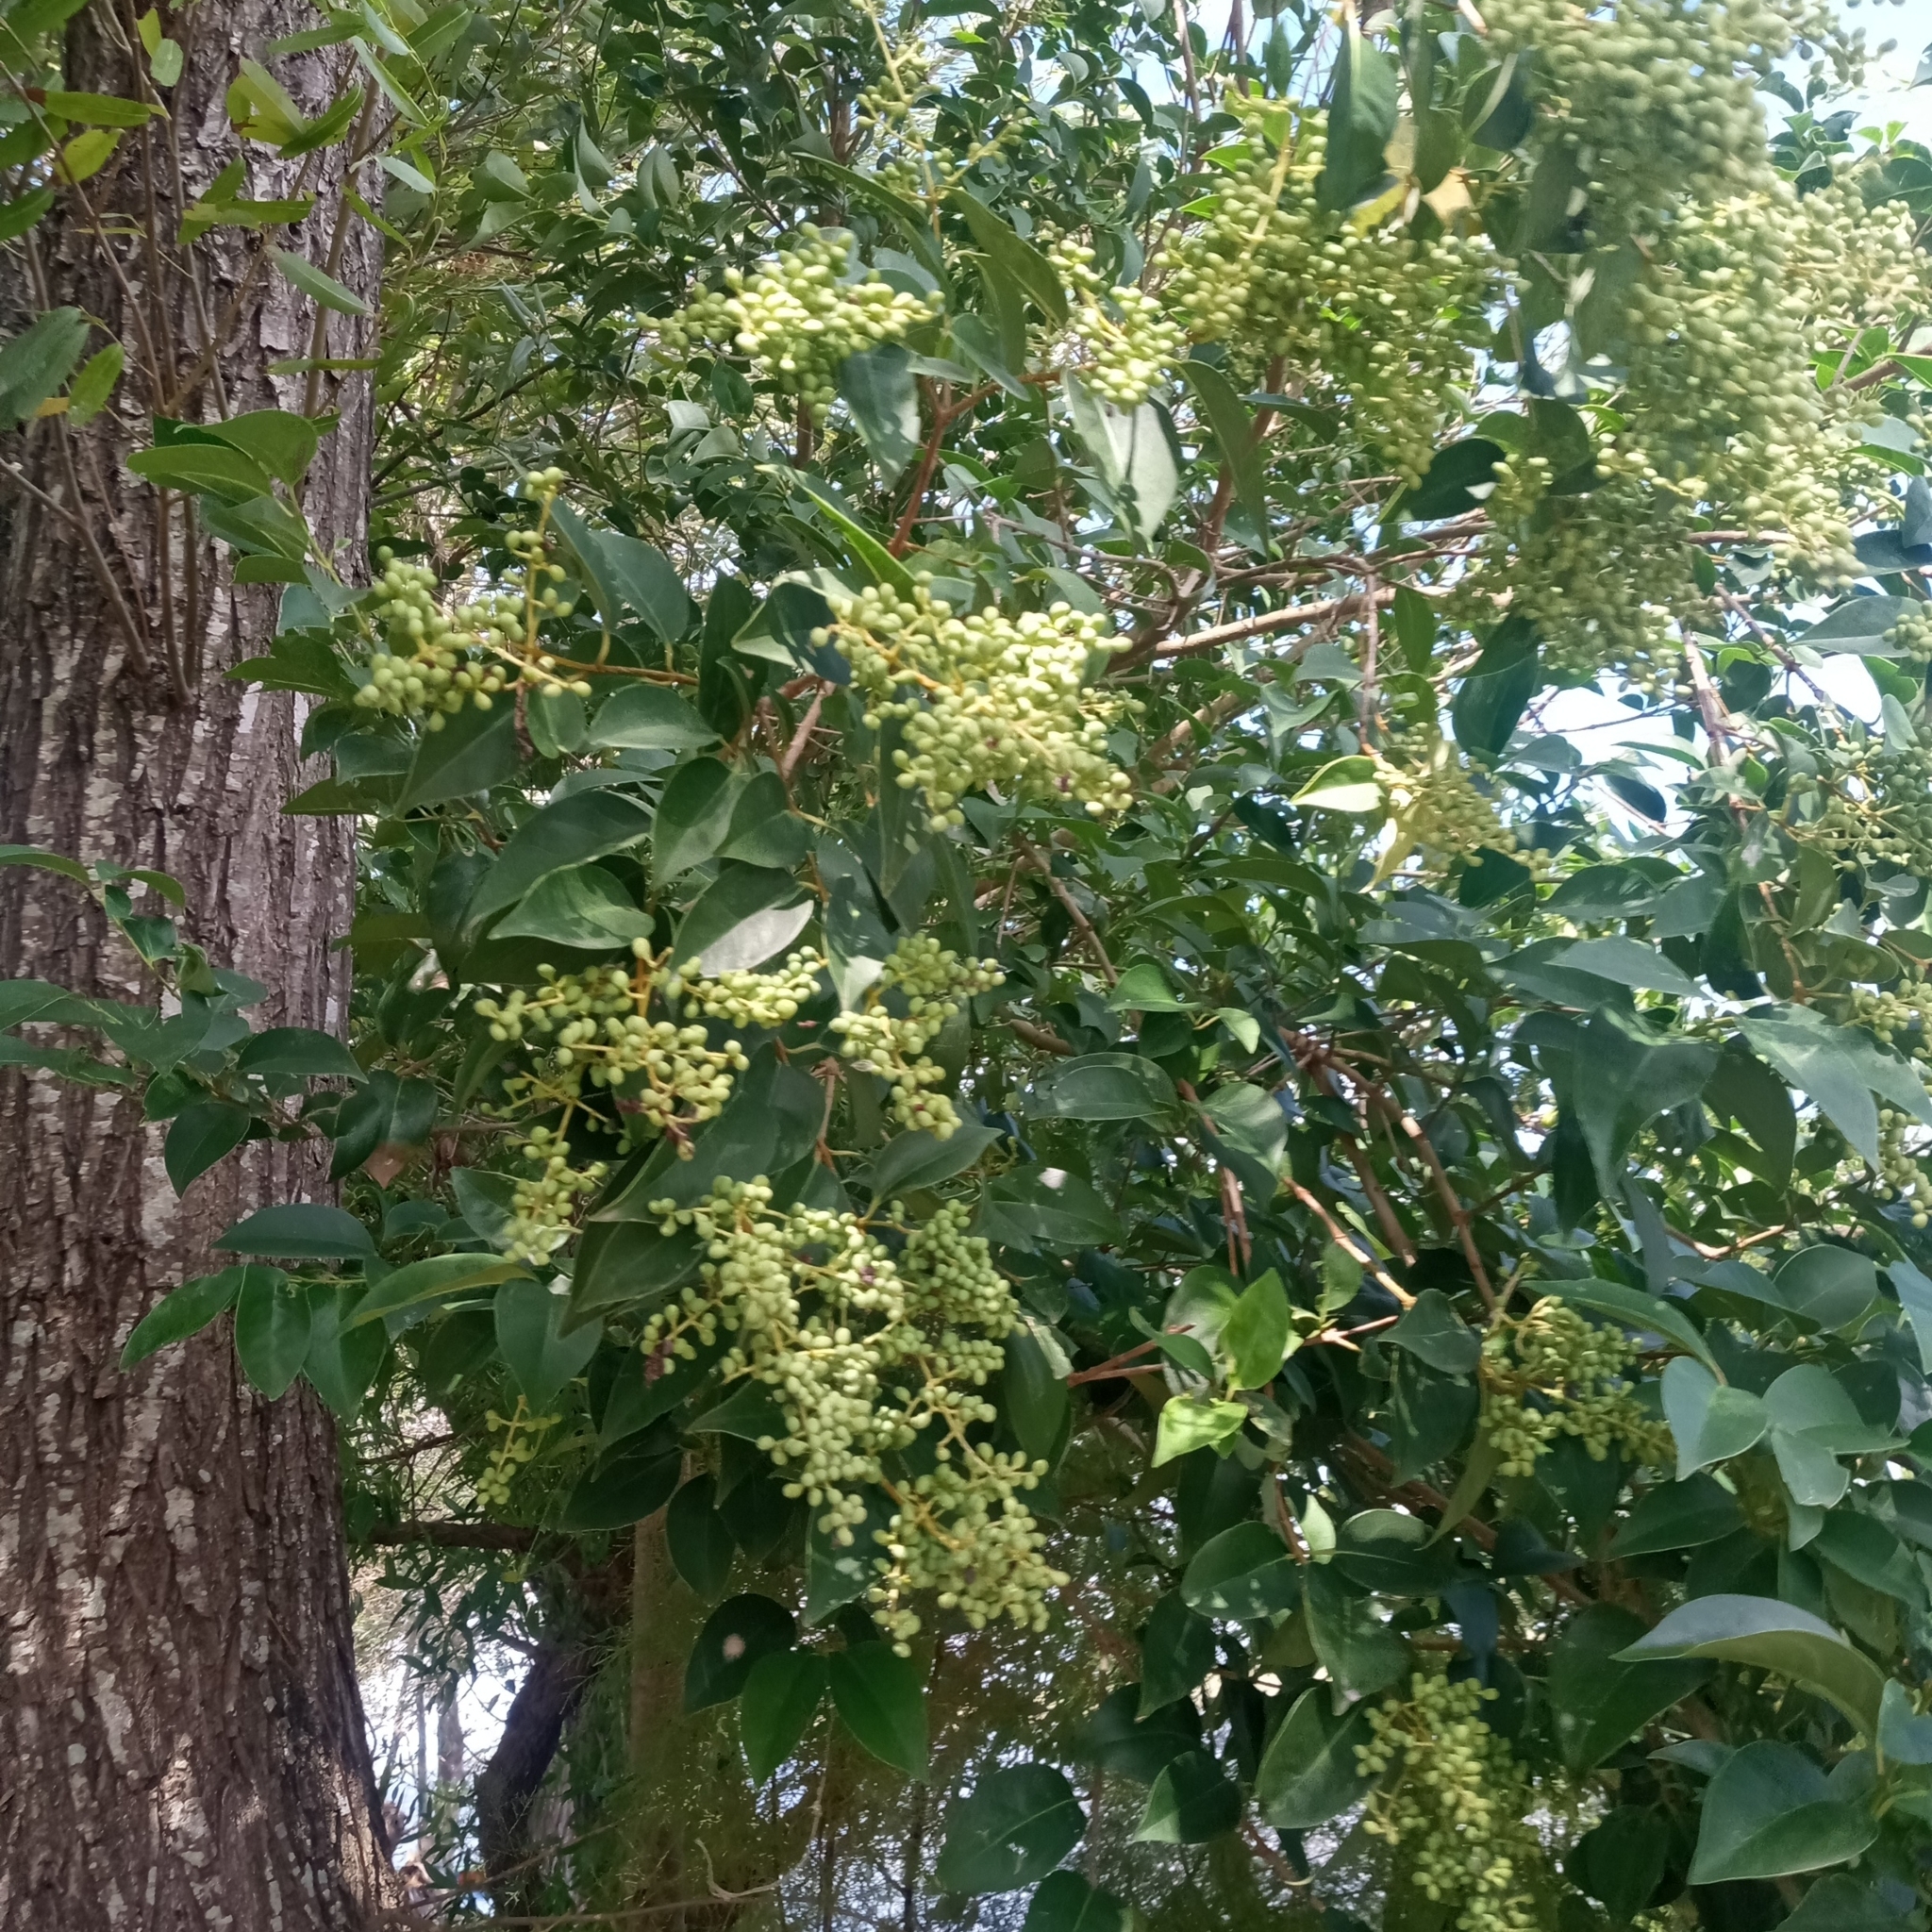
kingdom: Plantae
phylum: Tracheophyta
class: Magnoliopsida
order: Lamiales
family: Oleaceae
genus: Ligustrum
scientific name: Ligustrum lucidum
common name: Glossy privet
